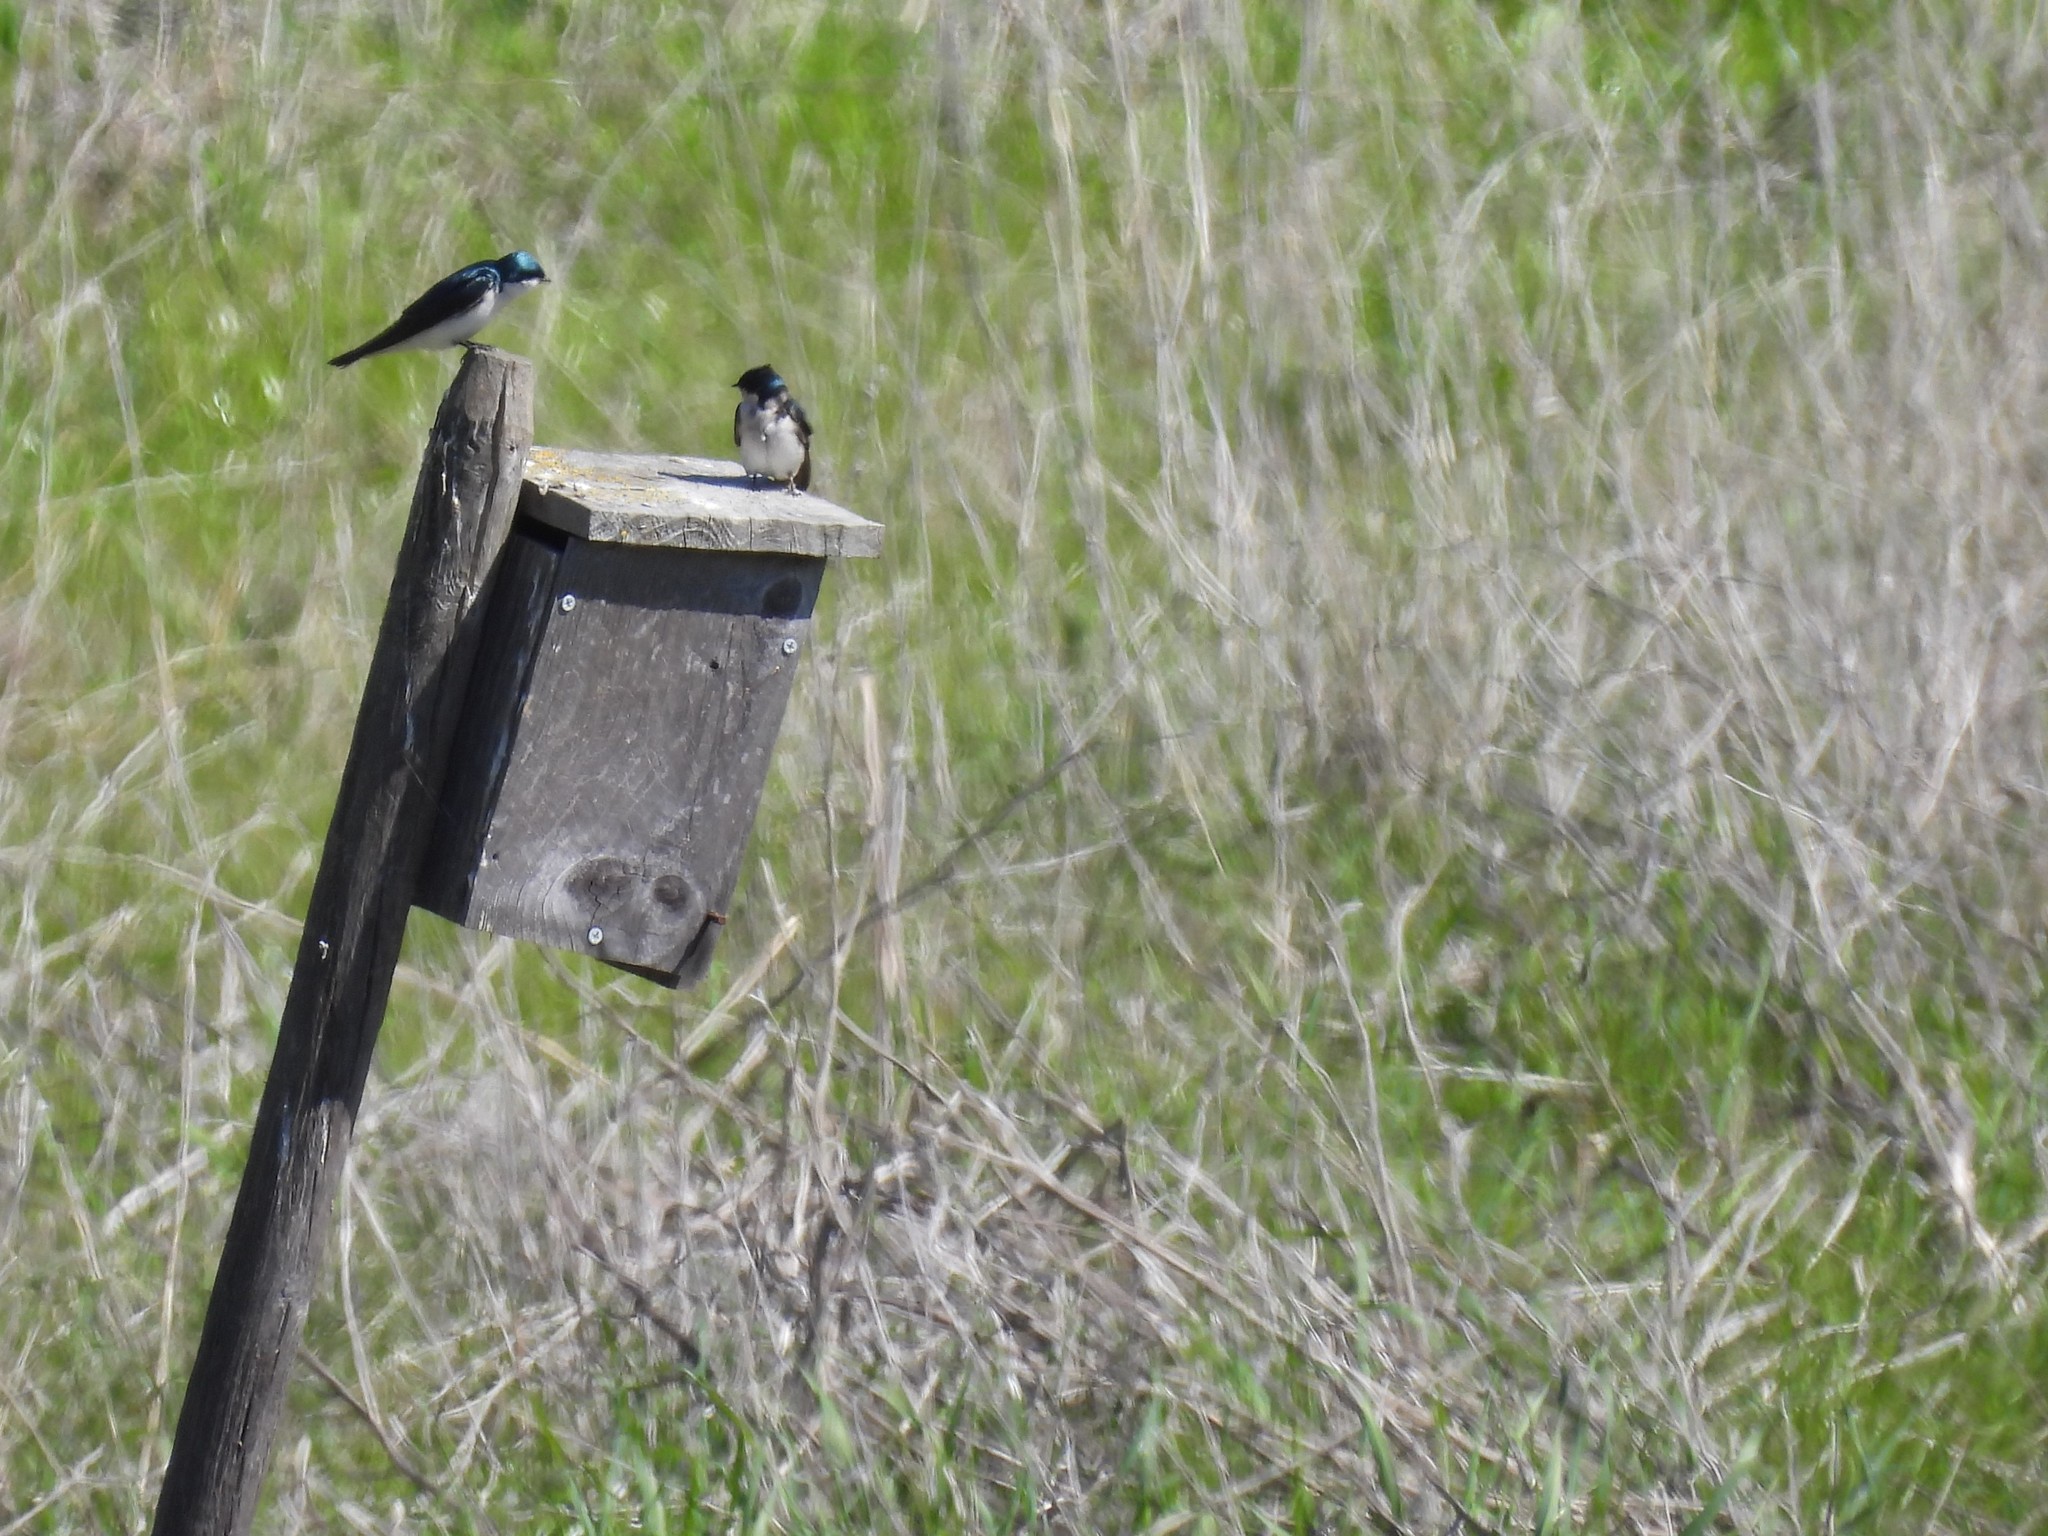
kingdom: Animalia
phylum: Chordata
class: Aves
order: Passeriformes
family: Hirundinidae
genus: Tachycineta
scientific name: Tachycineta bicolor
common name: Tree swallow
